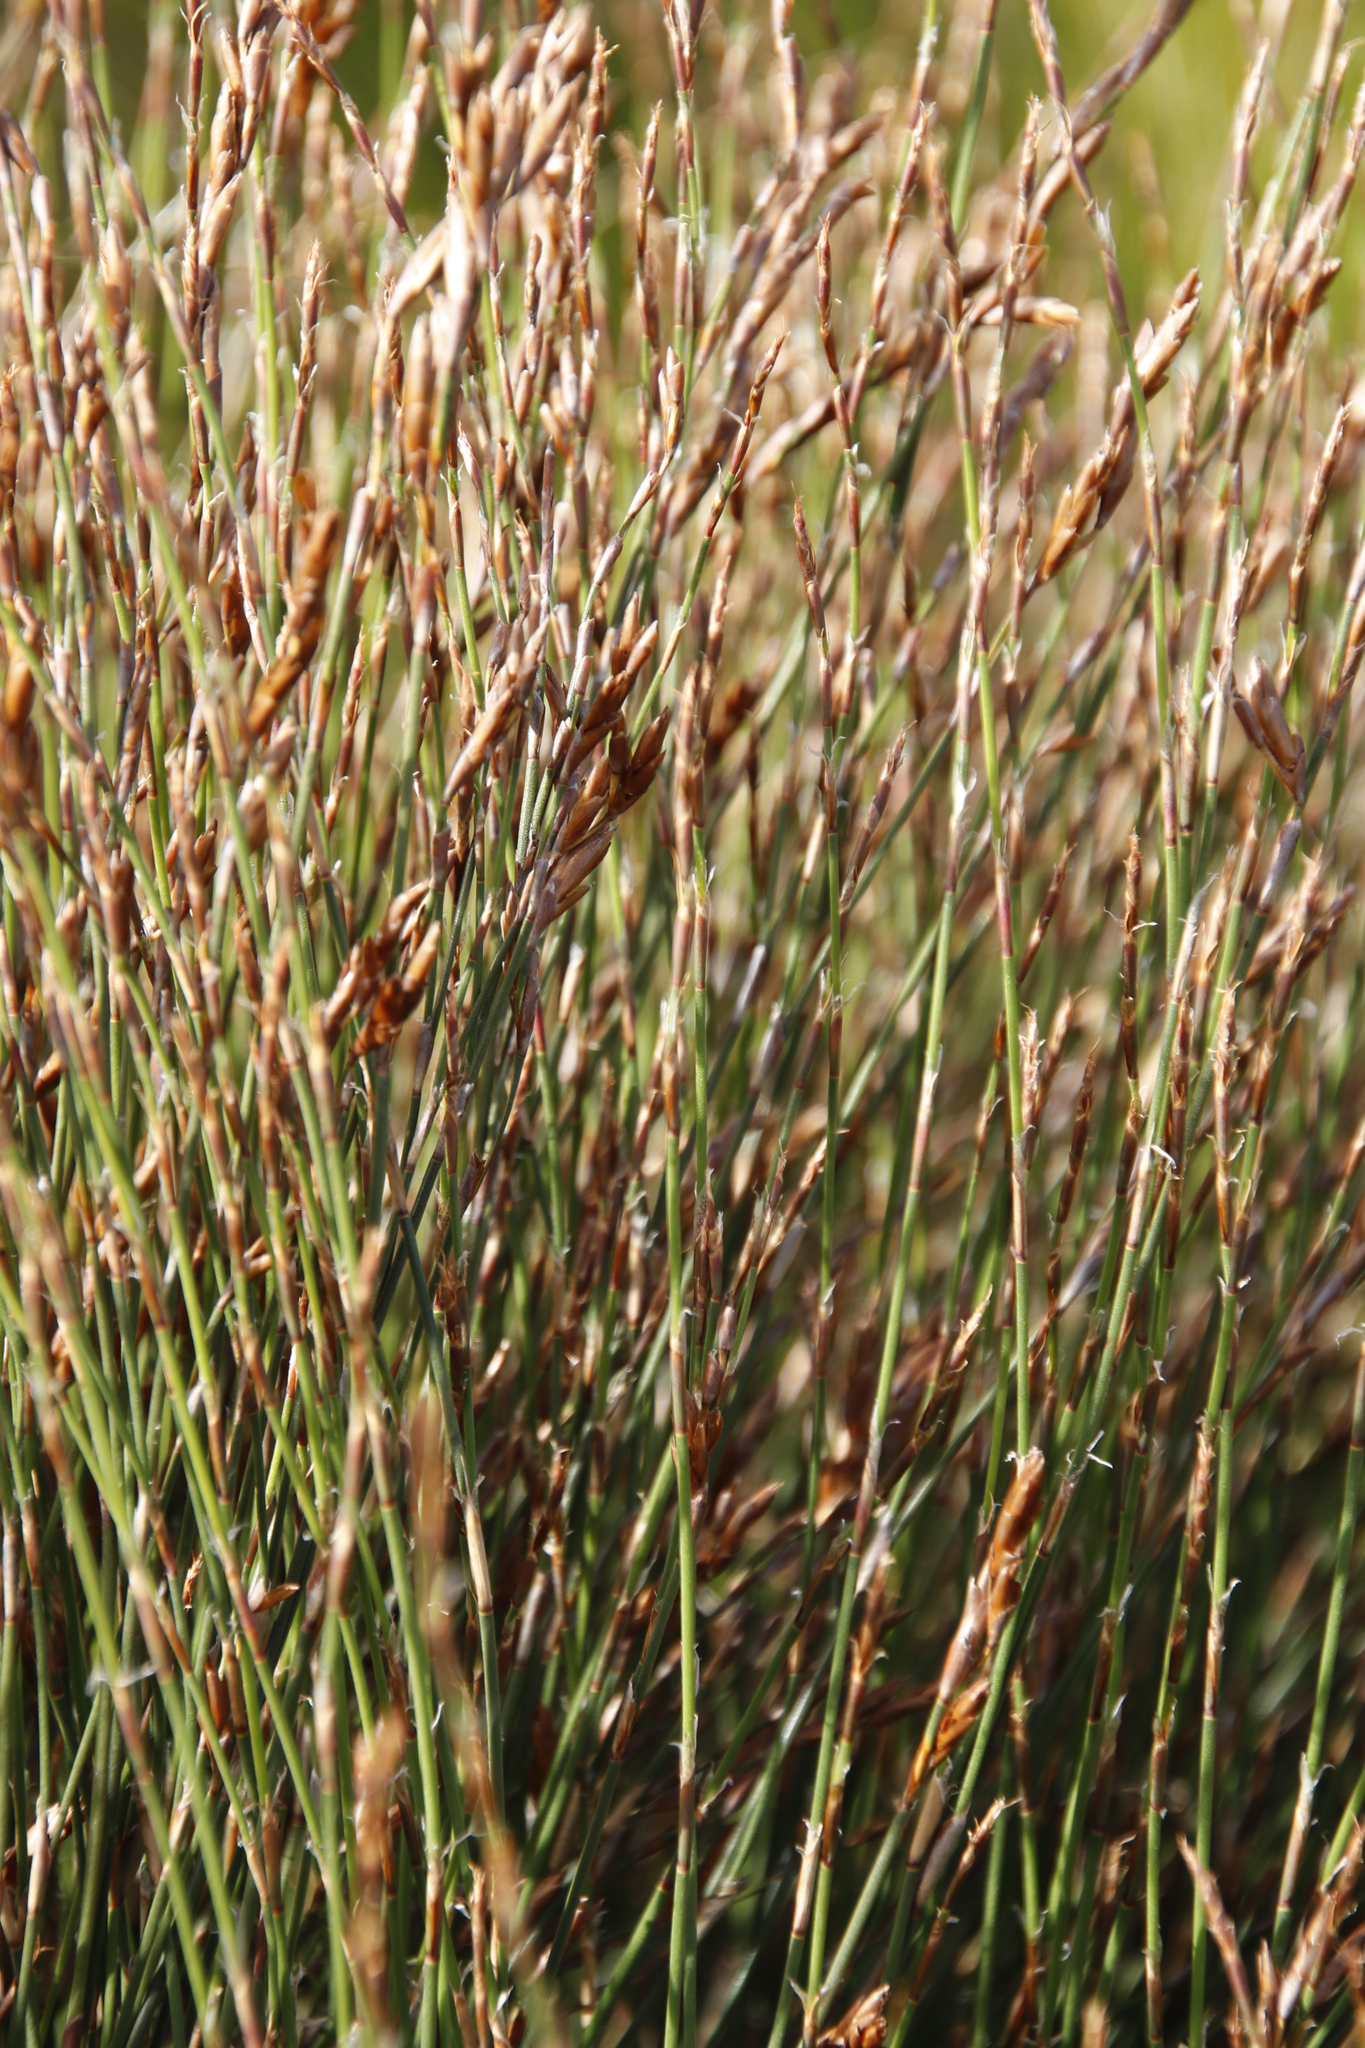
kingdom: Plantae
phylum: Tracheophyta
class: Liliopsida
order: Poales
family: Restionaceae
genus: Restio
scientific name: Restio triticeus
